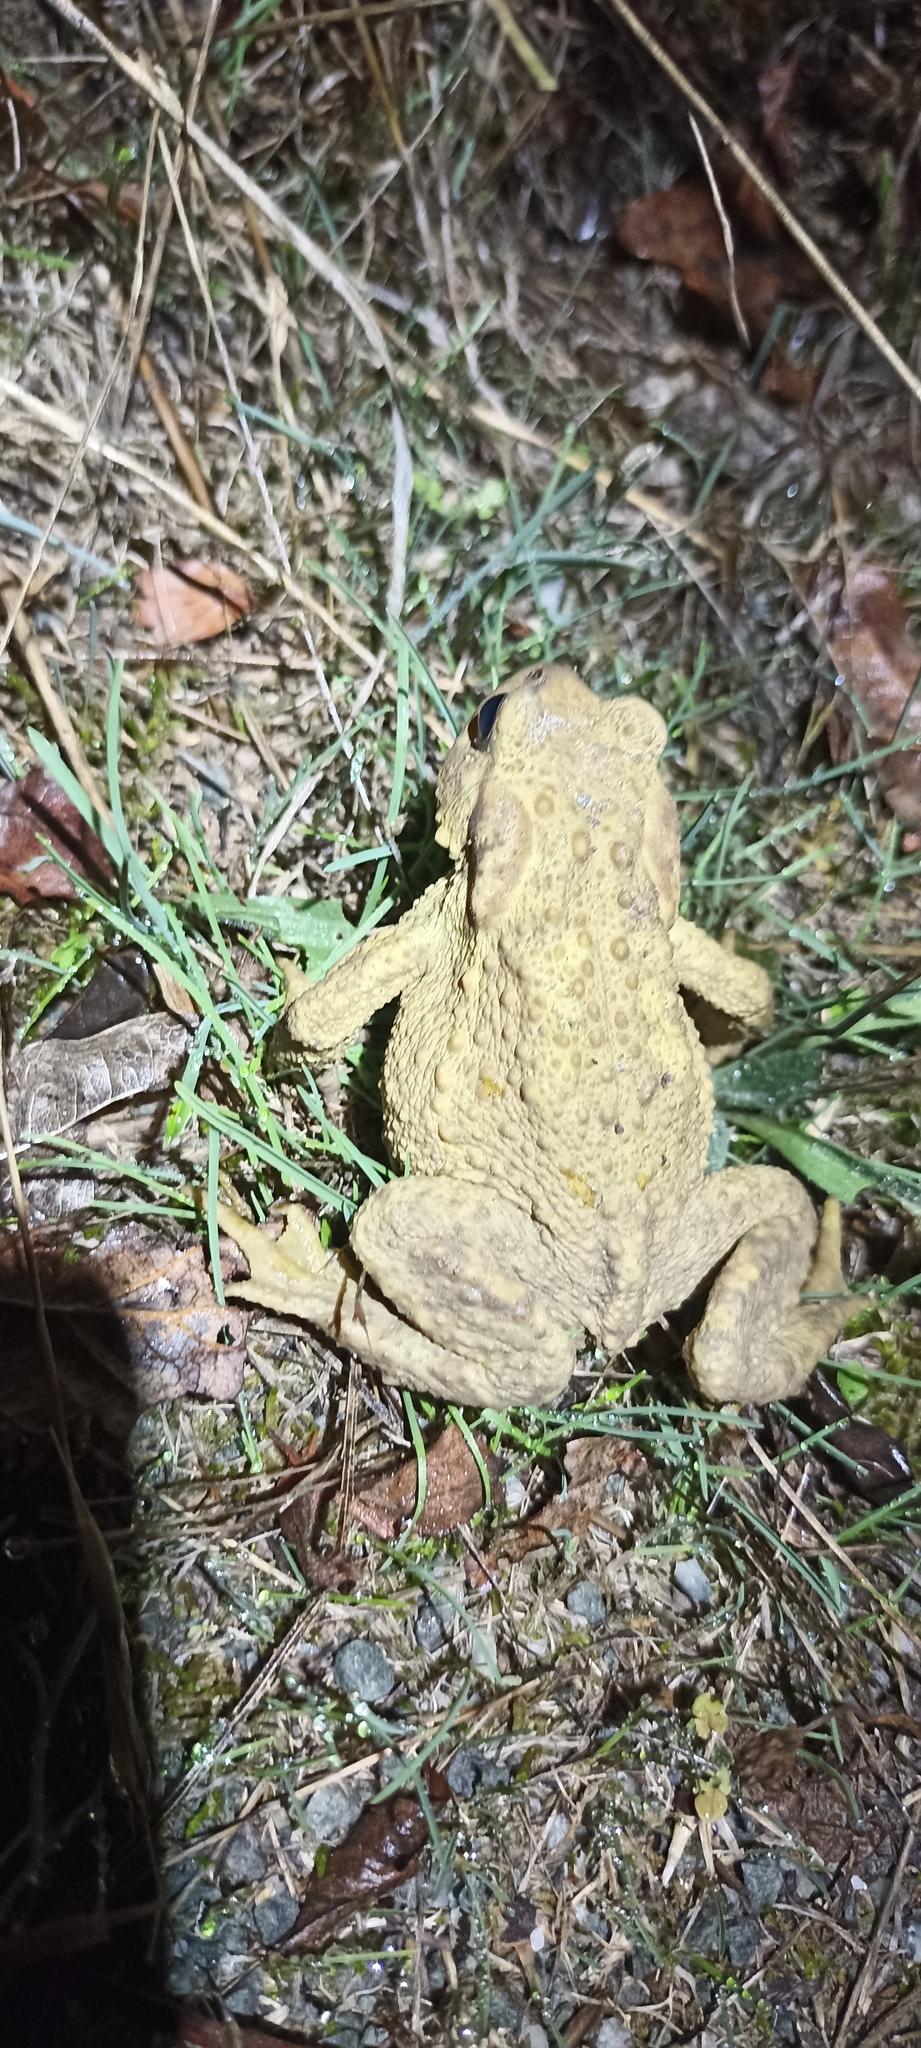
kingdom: Animalia
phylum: Chordata
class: Amphibia
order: Anura
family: Bufonidae
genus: Bufo
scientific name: Bufo spinosus
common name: Western common toad
